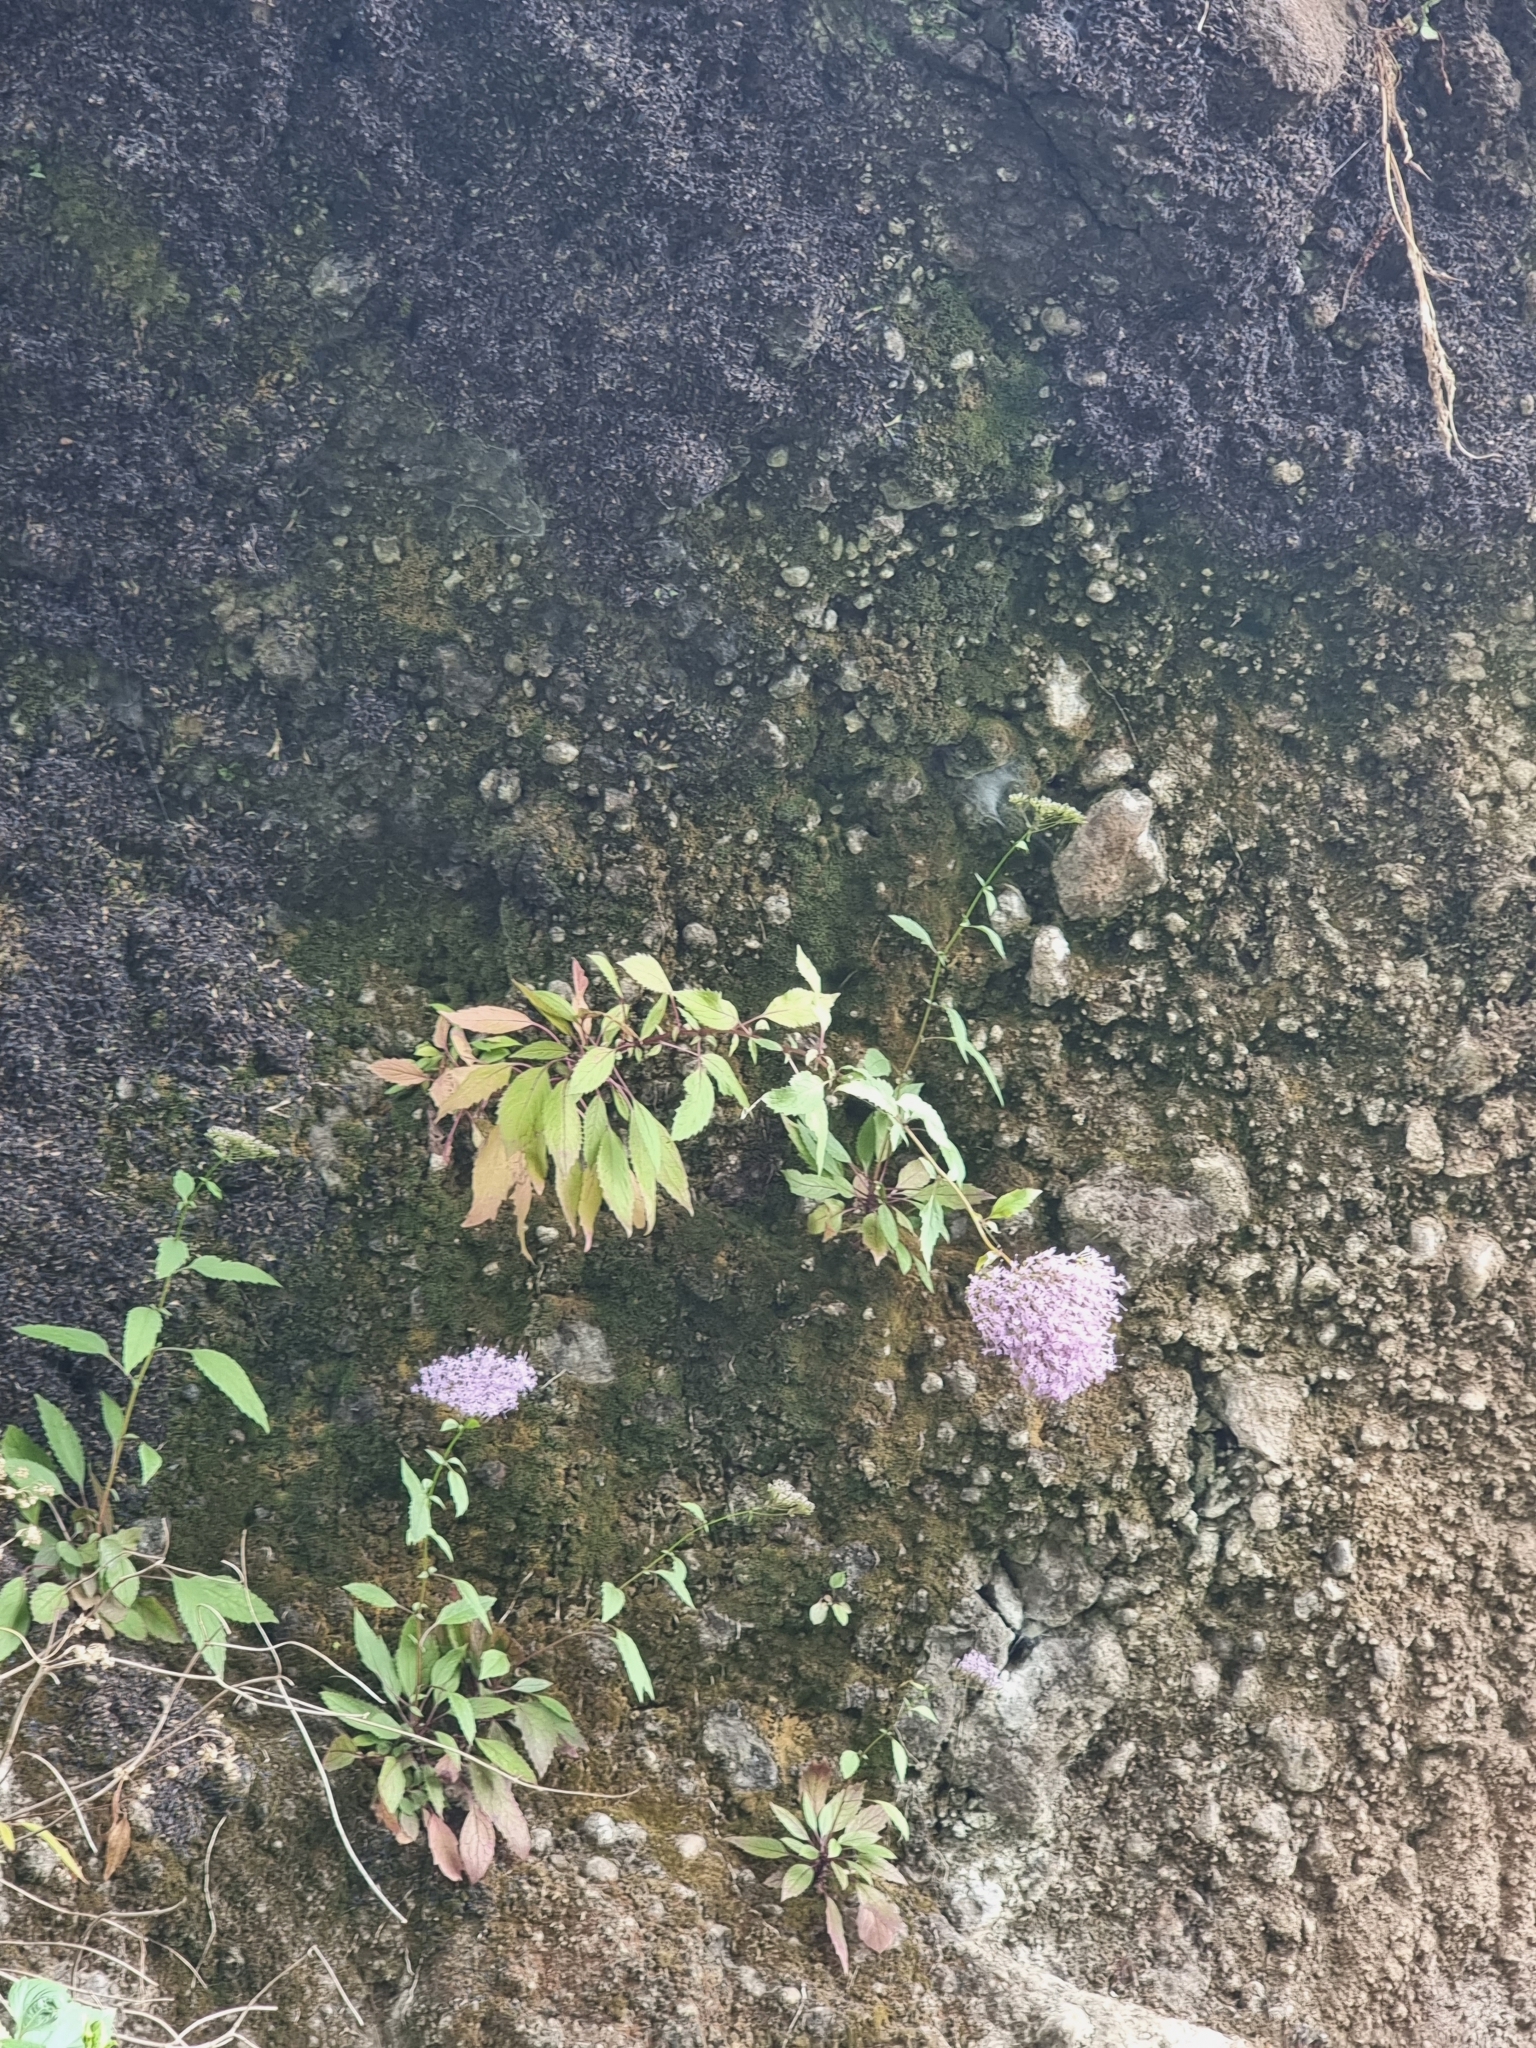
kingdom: Plantae
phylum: Tracheophyta
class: Magnoliopsida
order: Asterales
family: Campanulaceae
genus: Trachelium
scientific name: Trachelium caeruleum
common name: Throatwort
